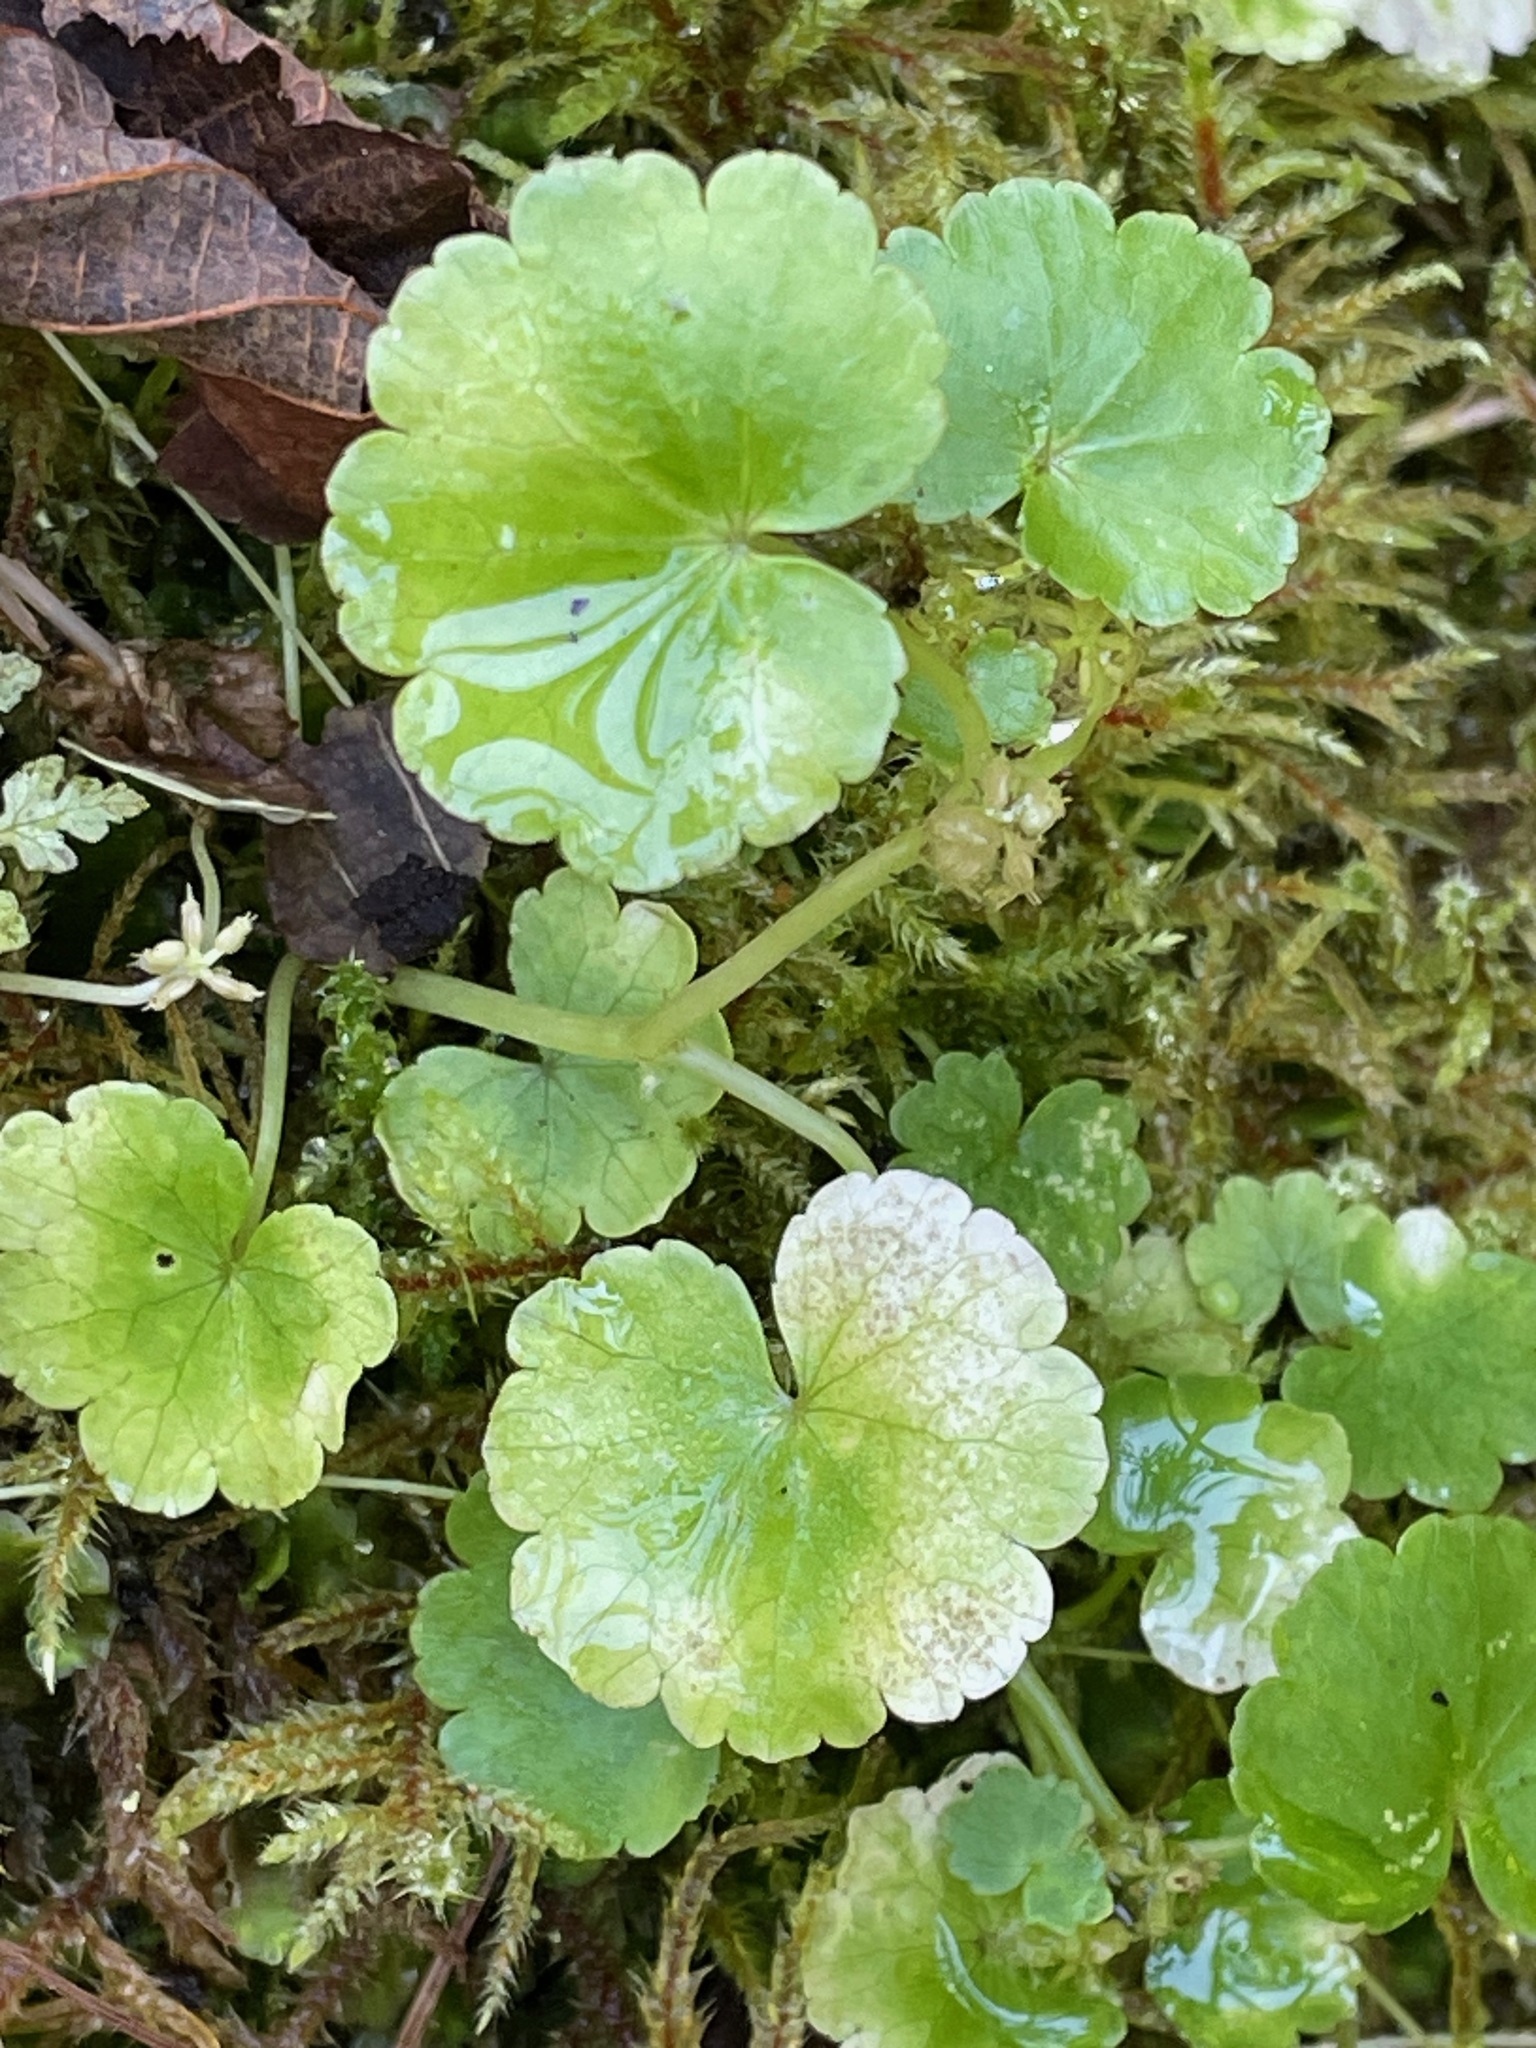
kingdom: Plantae
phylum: Tracheophyta
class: Magnoliopsida
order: Apiales
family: Araliaceae
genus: Hydrocotyle
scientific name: Hydrocotyle americana
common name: American water-pennywort
